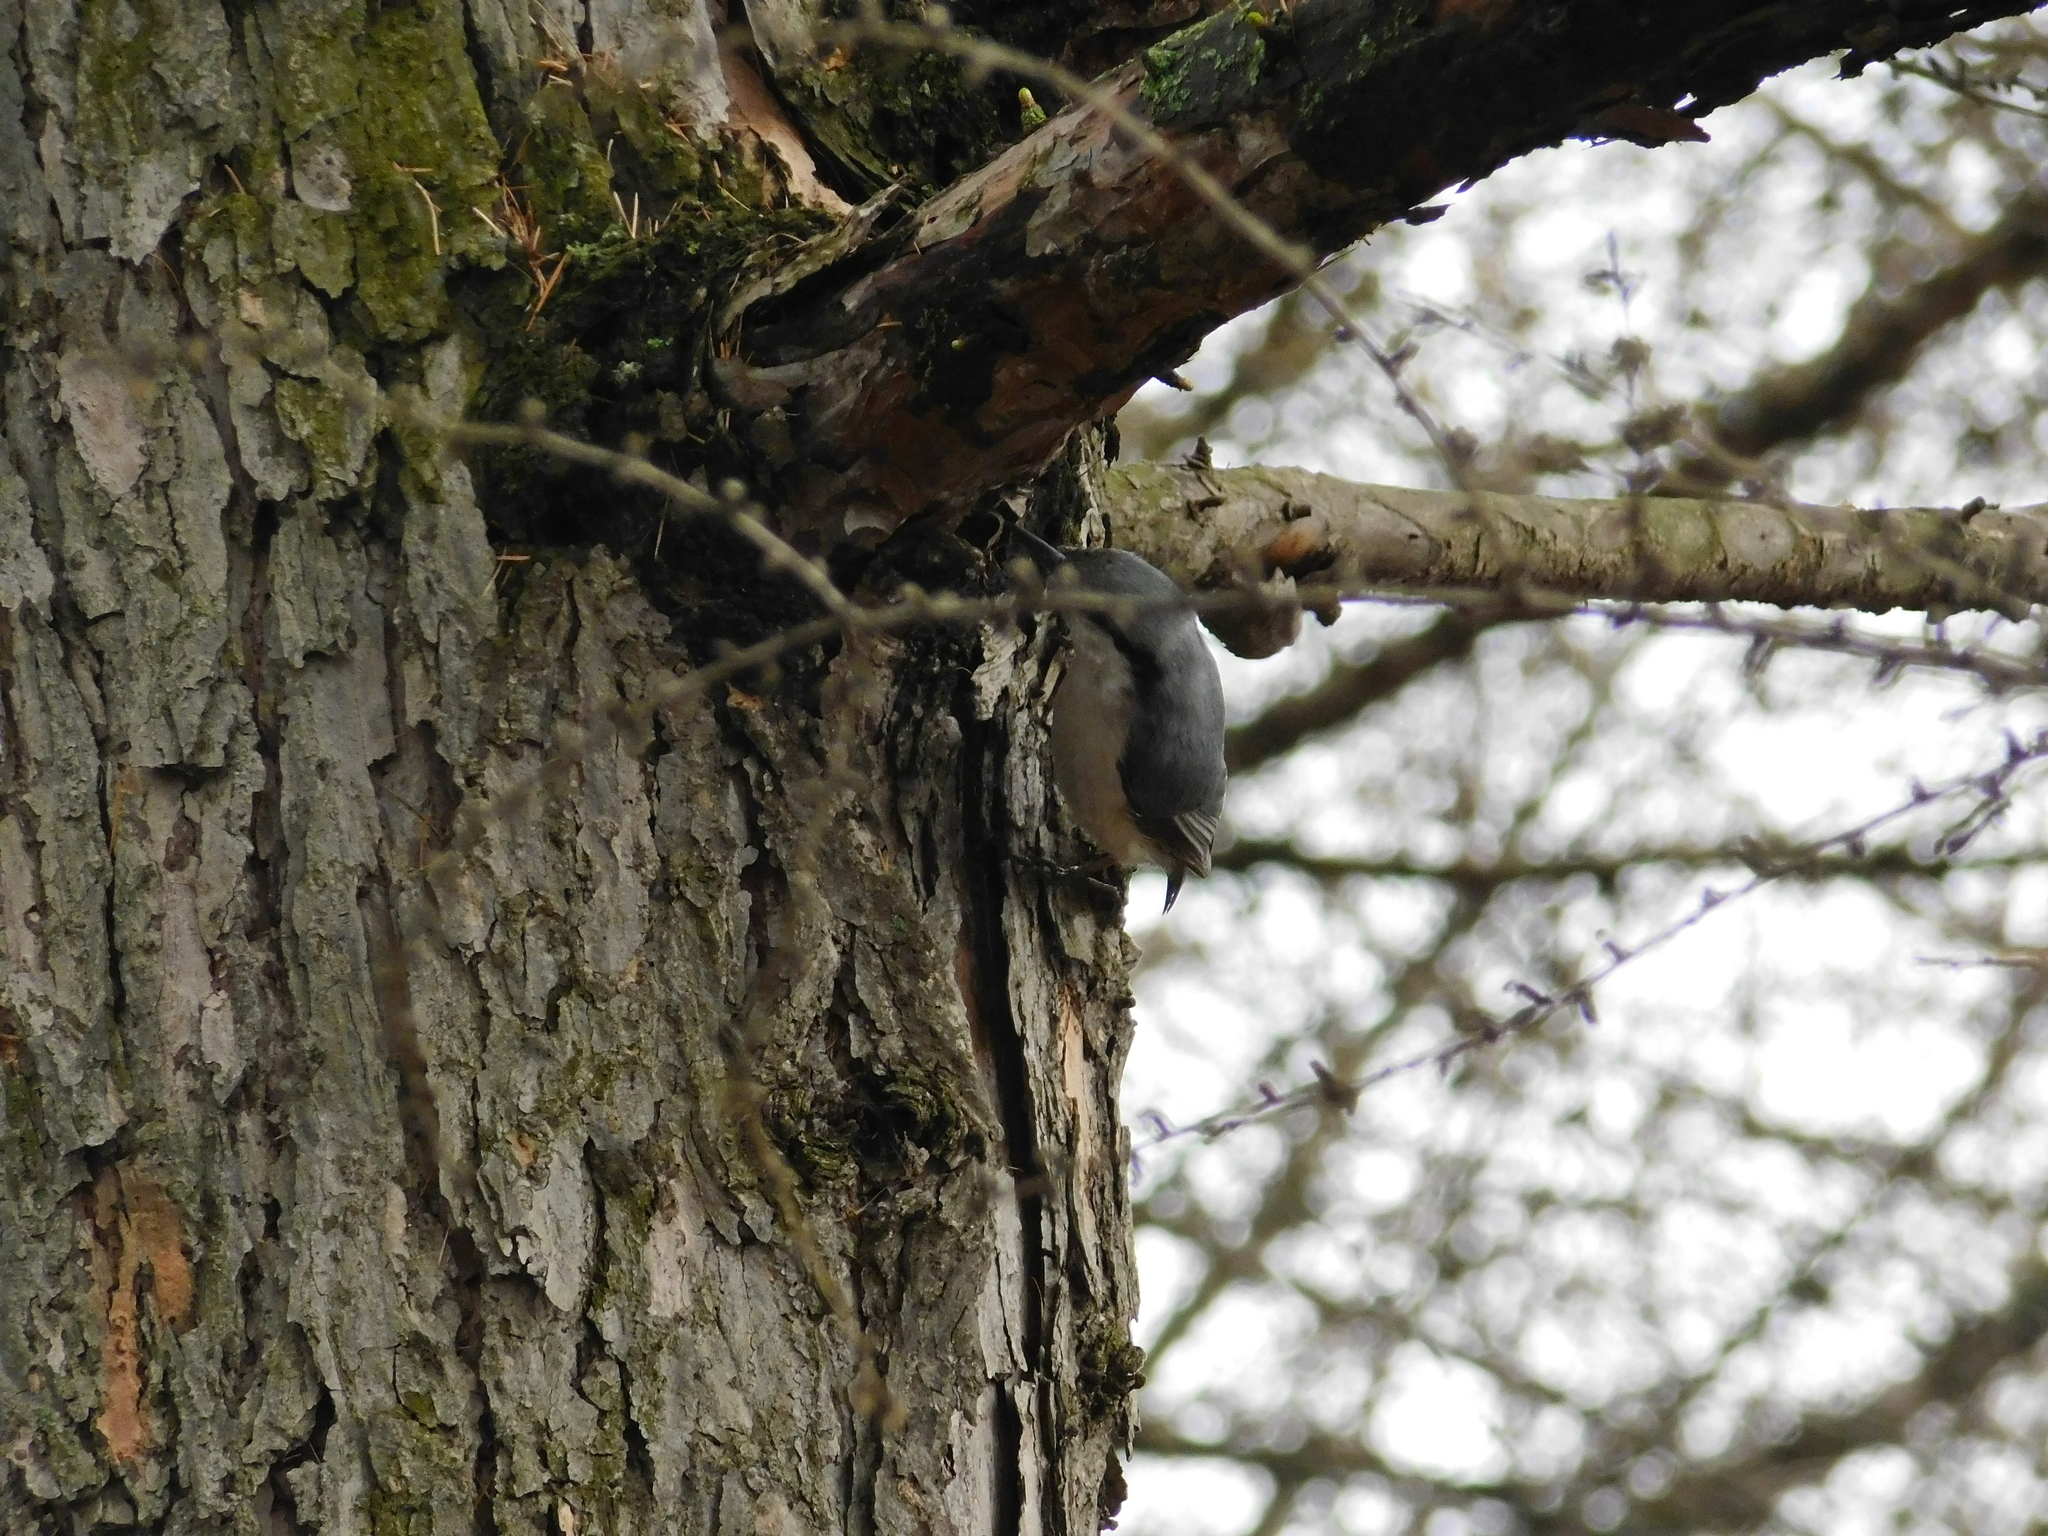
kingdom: Animalia
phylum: Chordata
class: Aves
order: Passeriformes
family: Sittidae
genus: Sitta
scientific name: Sitta europaea
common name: Eurasian nuthatch
